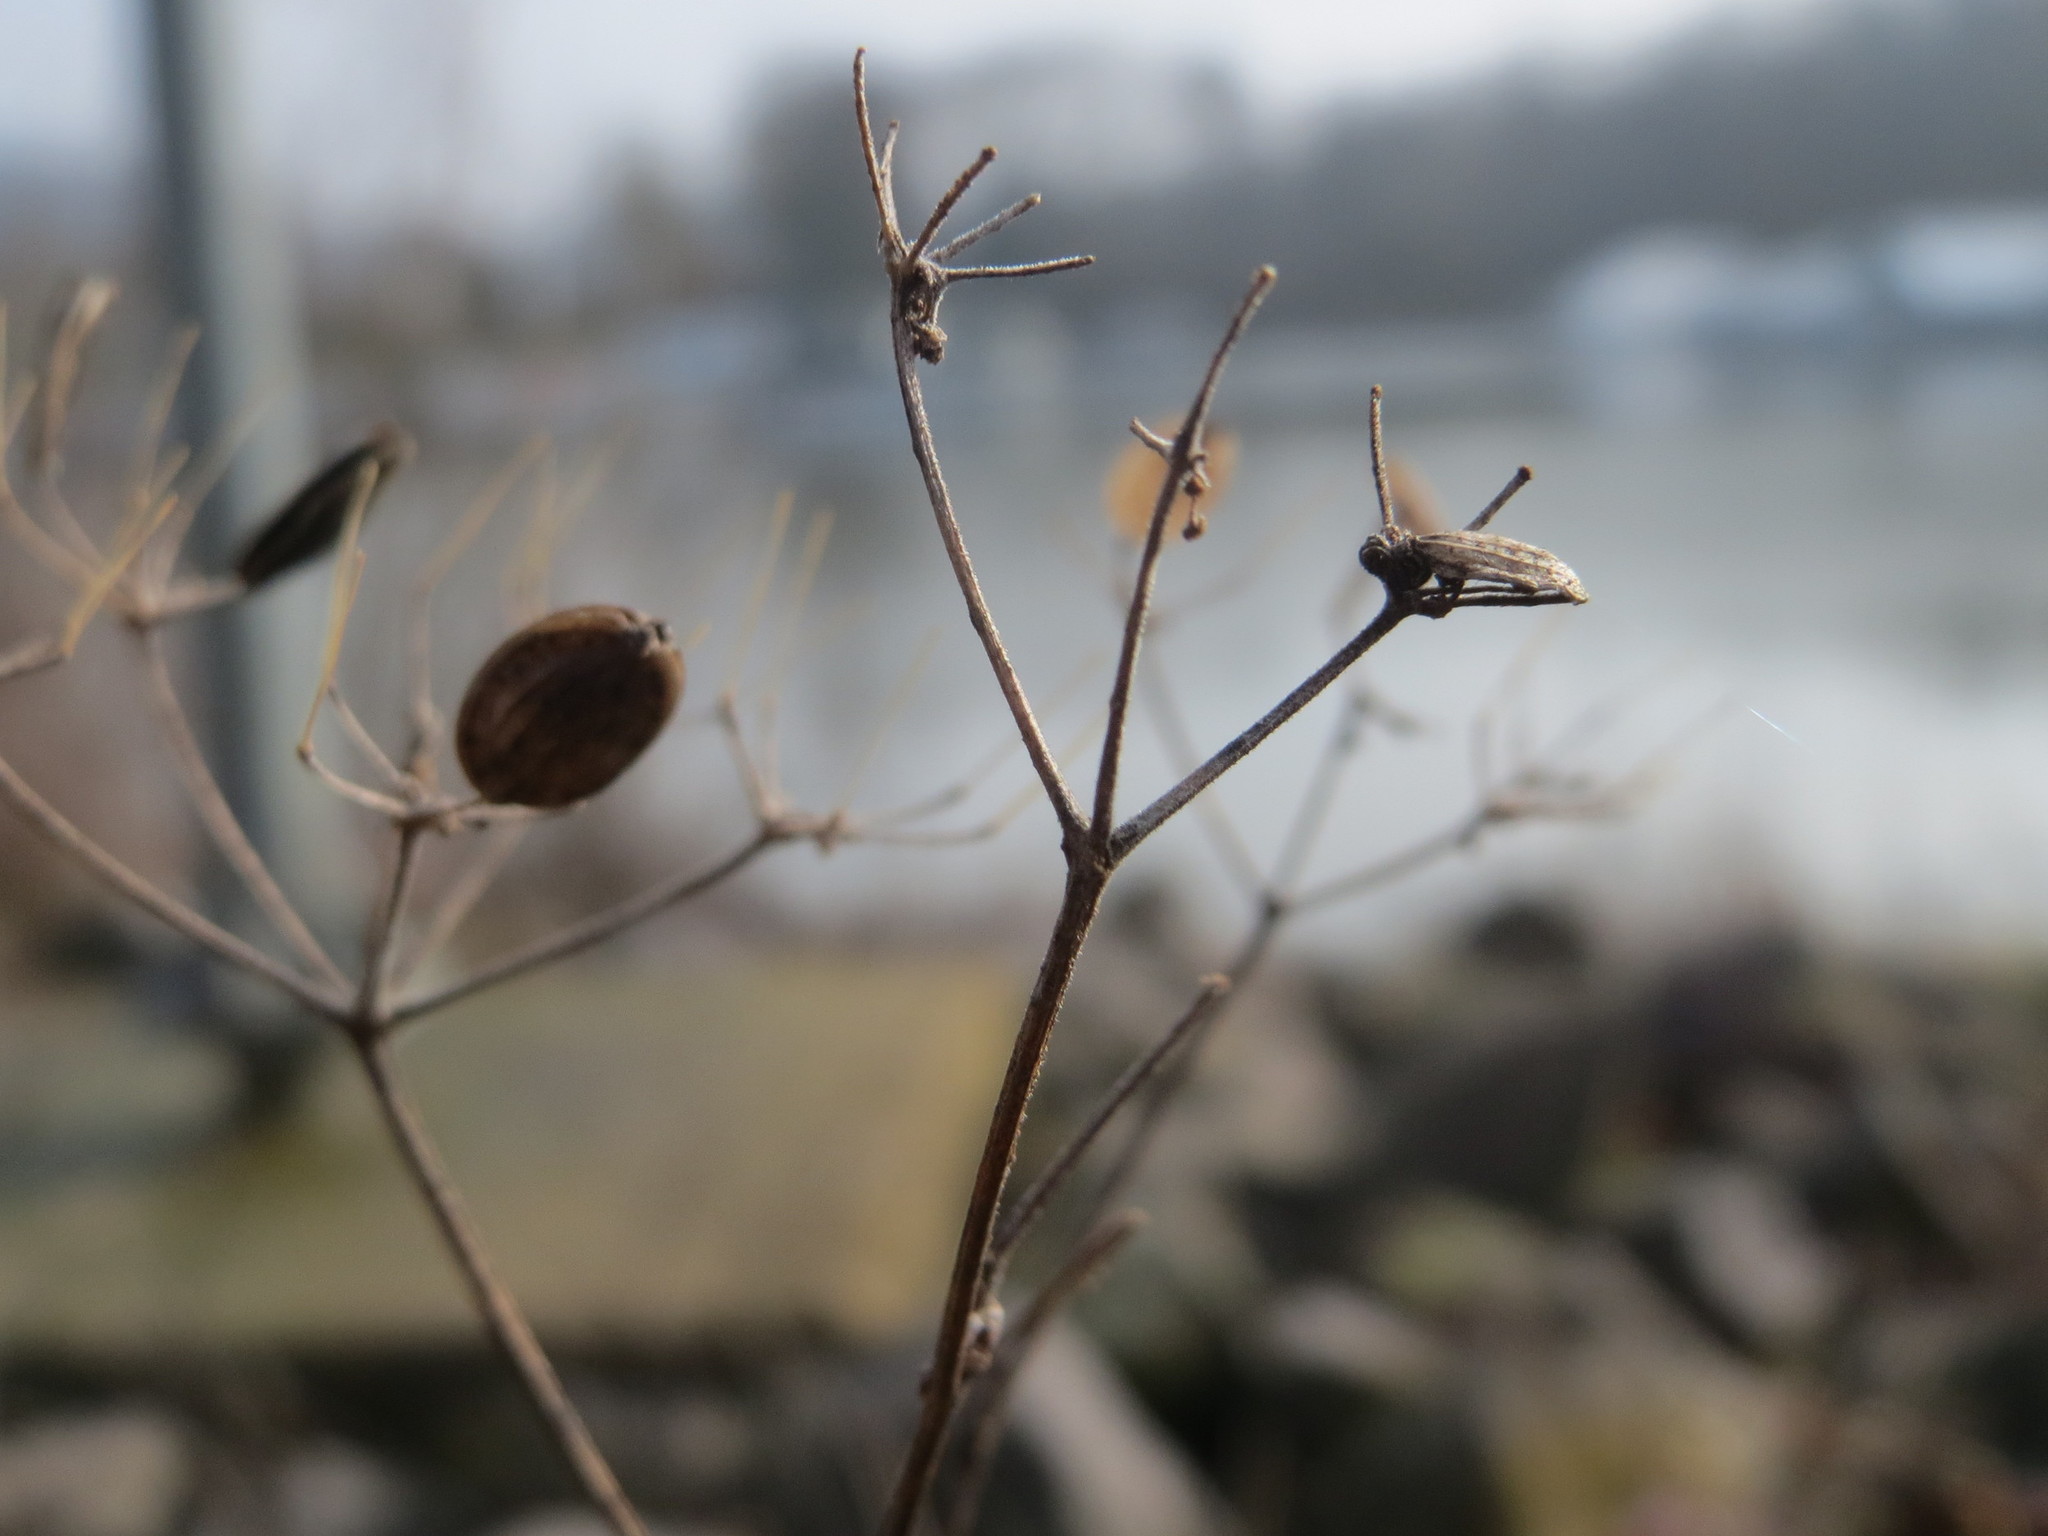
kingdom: Plantae
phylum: Tracheophyta
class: Magnoliopsida
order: Apiales
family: Apiaceae
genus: Heracleum
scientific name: Heracleum sphondylium
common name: Hogweed
